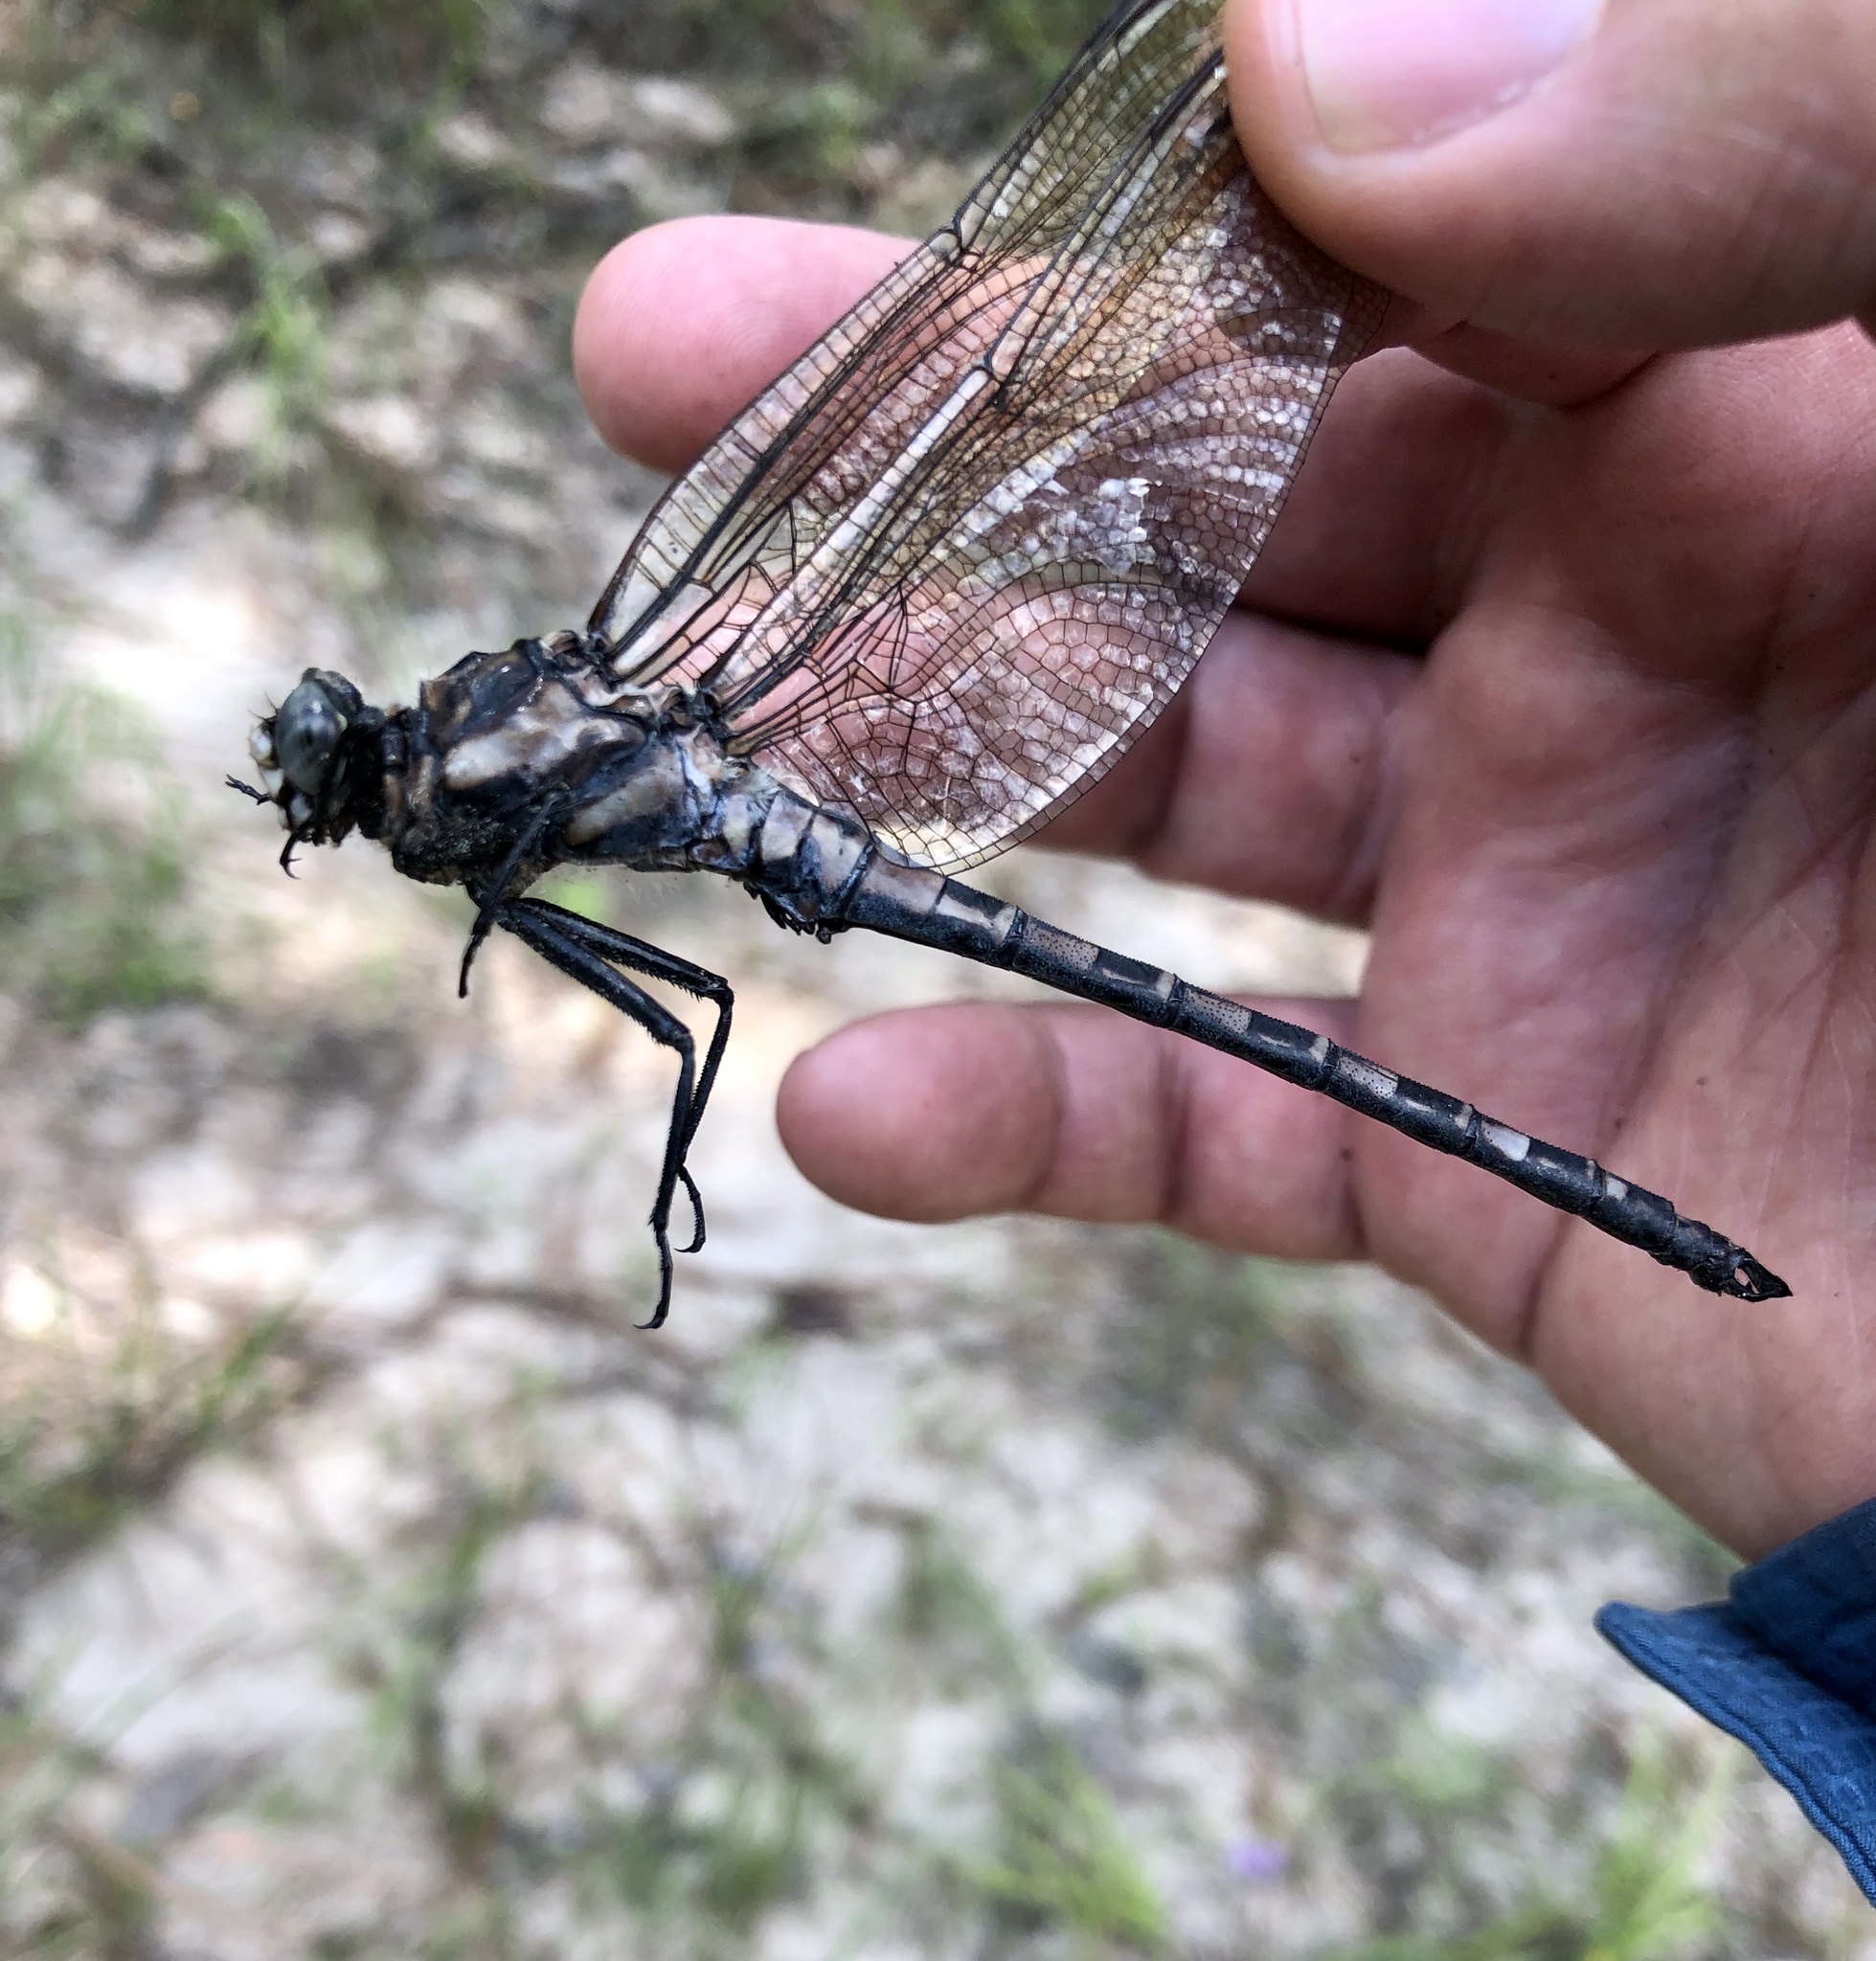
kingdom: Animalia
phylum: Arthropoda
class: Insecta
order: Odonata
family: Petaluridae
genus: Tachopteryx
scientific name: Tachopteryx thoreyi
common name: Gray petaltail
